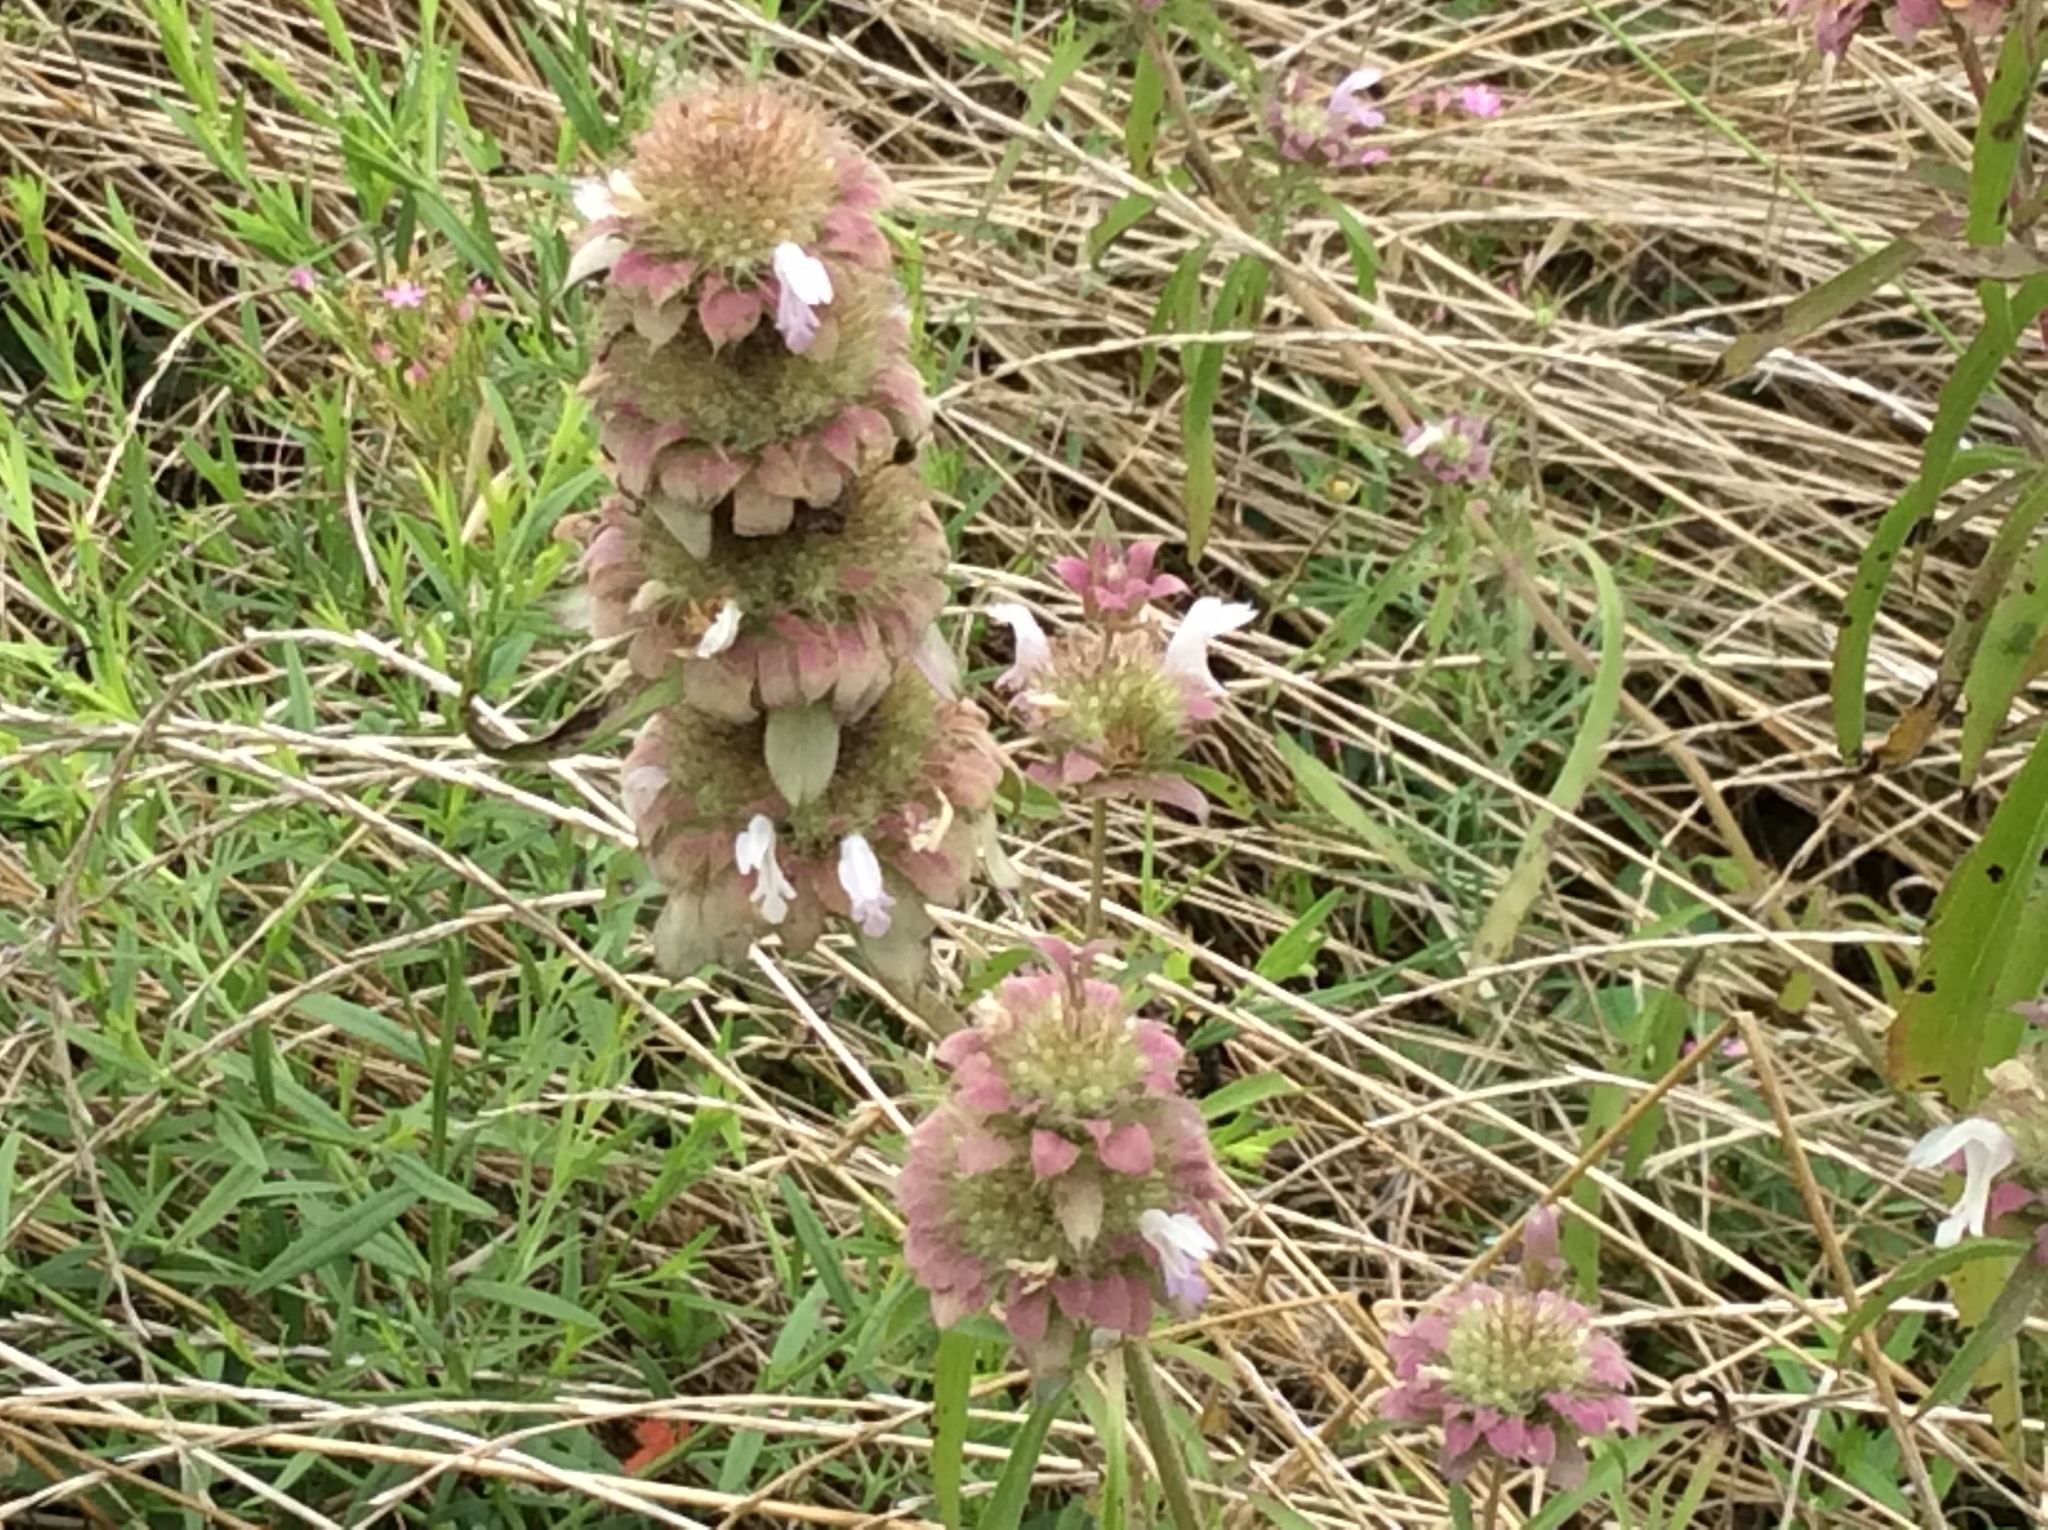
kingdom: Plantae
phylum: Tracheophyta
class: Magnoliopsida
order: Lamiales
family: Lamiaceae
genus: Monarda
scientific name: Monarda citriodora
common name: Lemon beebalm
